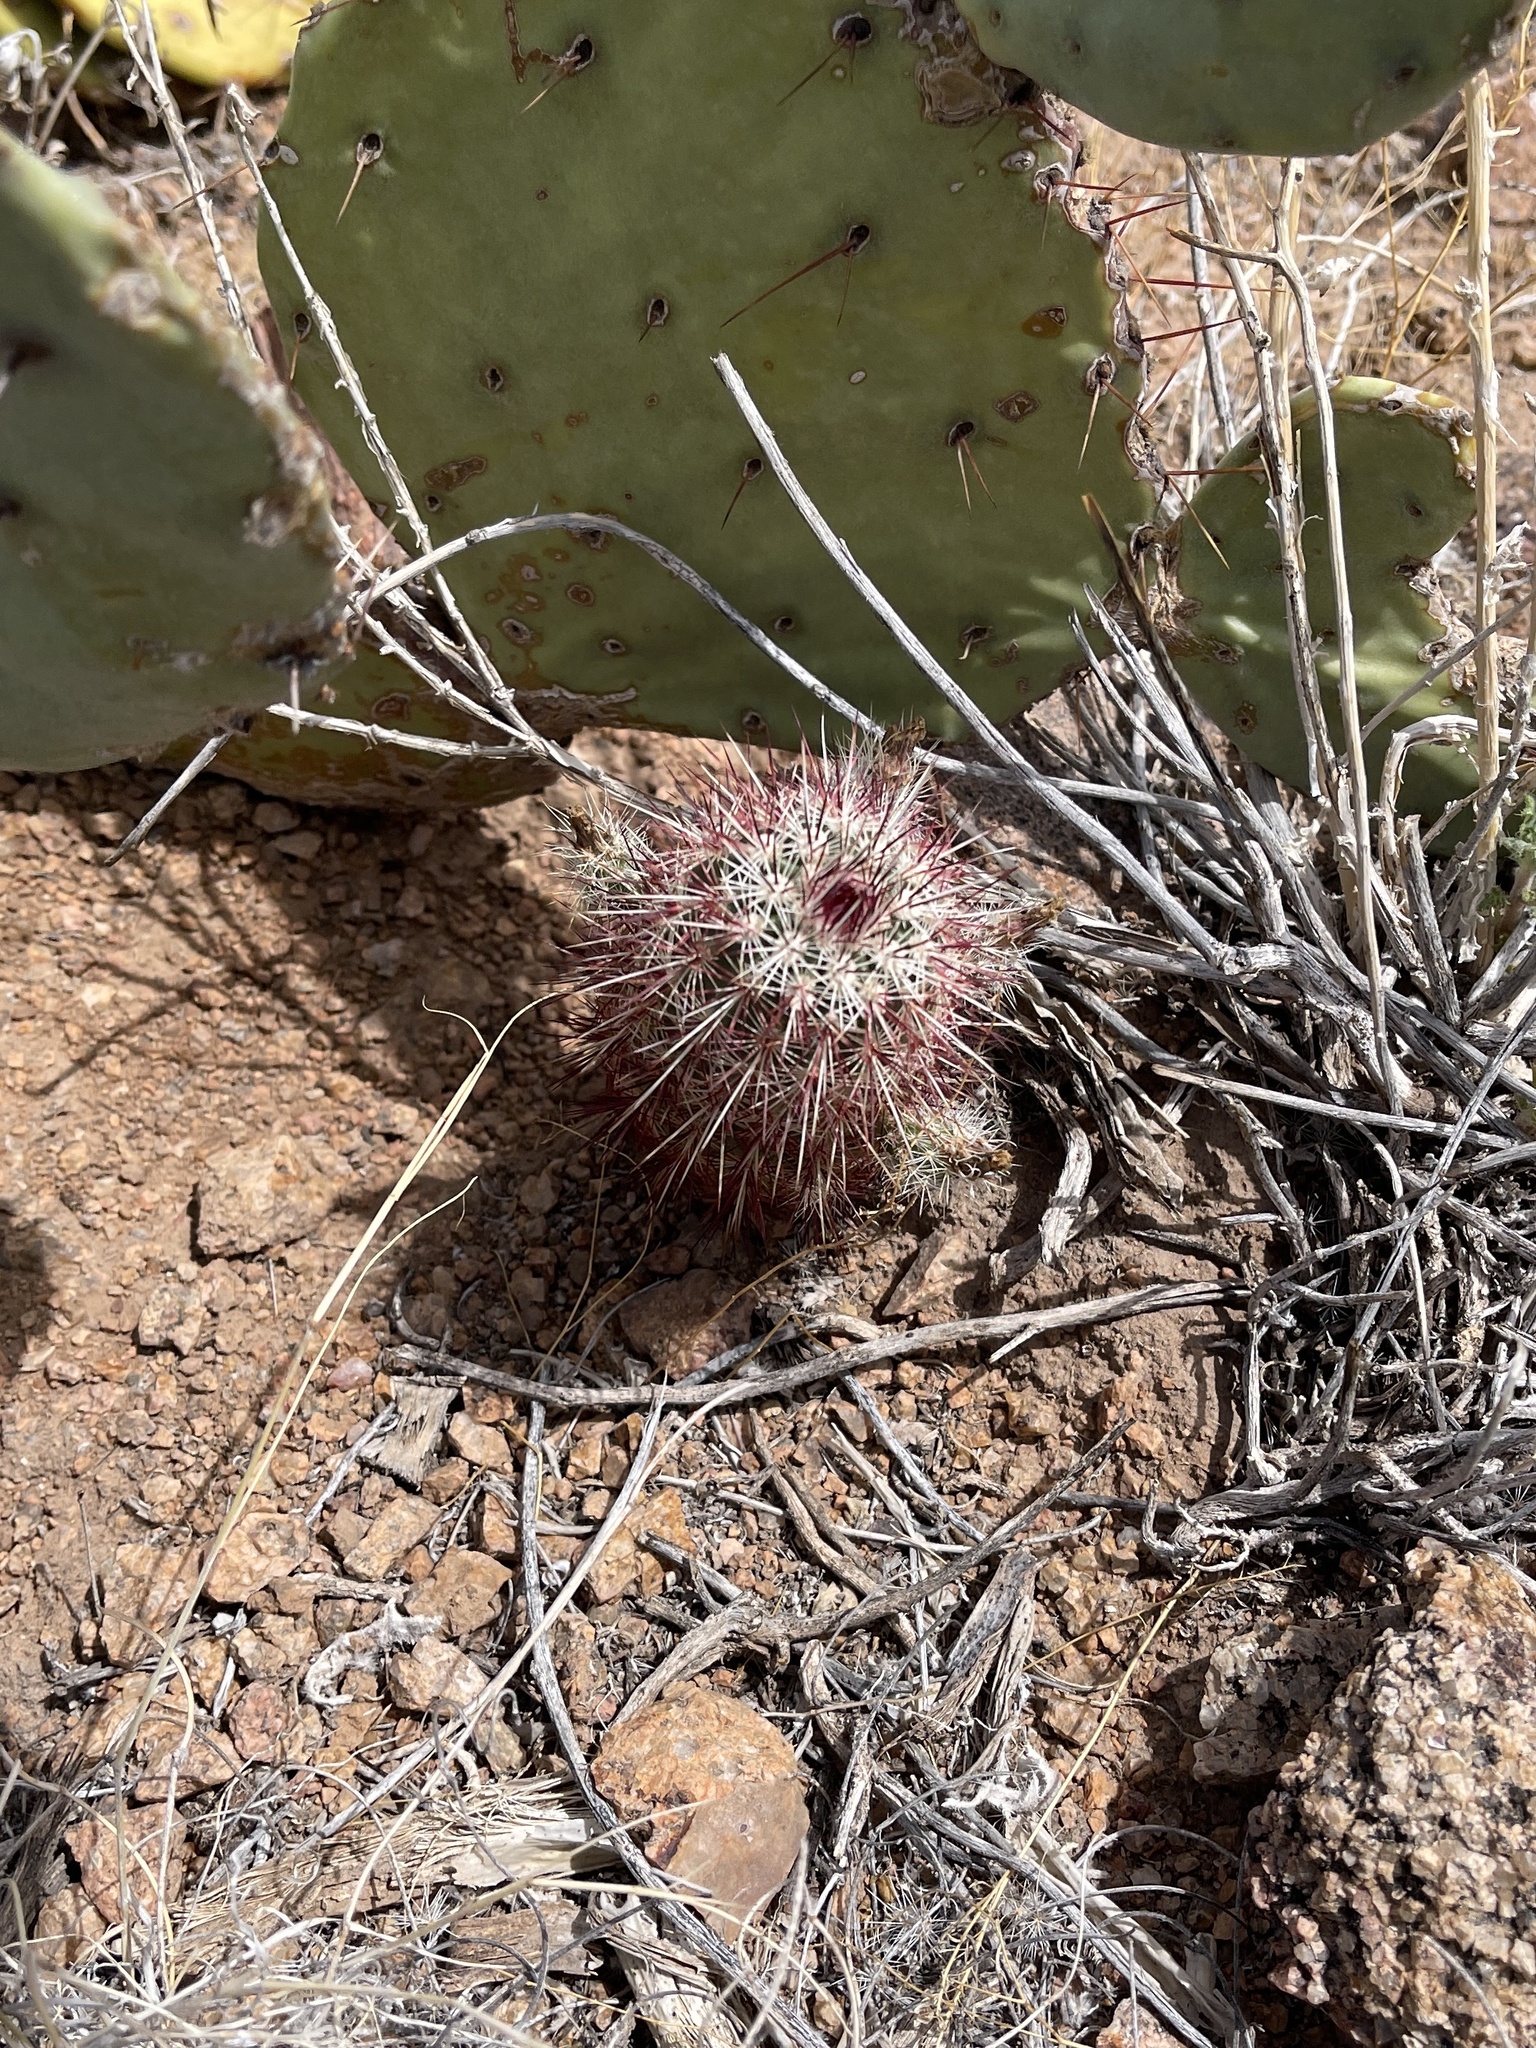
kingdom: Plantae
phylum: Tracheophyta
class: Magnoliopsida
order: Caryophyllales
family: Cactaceae
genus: Echinocereus
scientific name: Echinocereus viridiflorus
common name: Nylon hedgehog cactus
